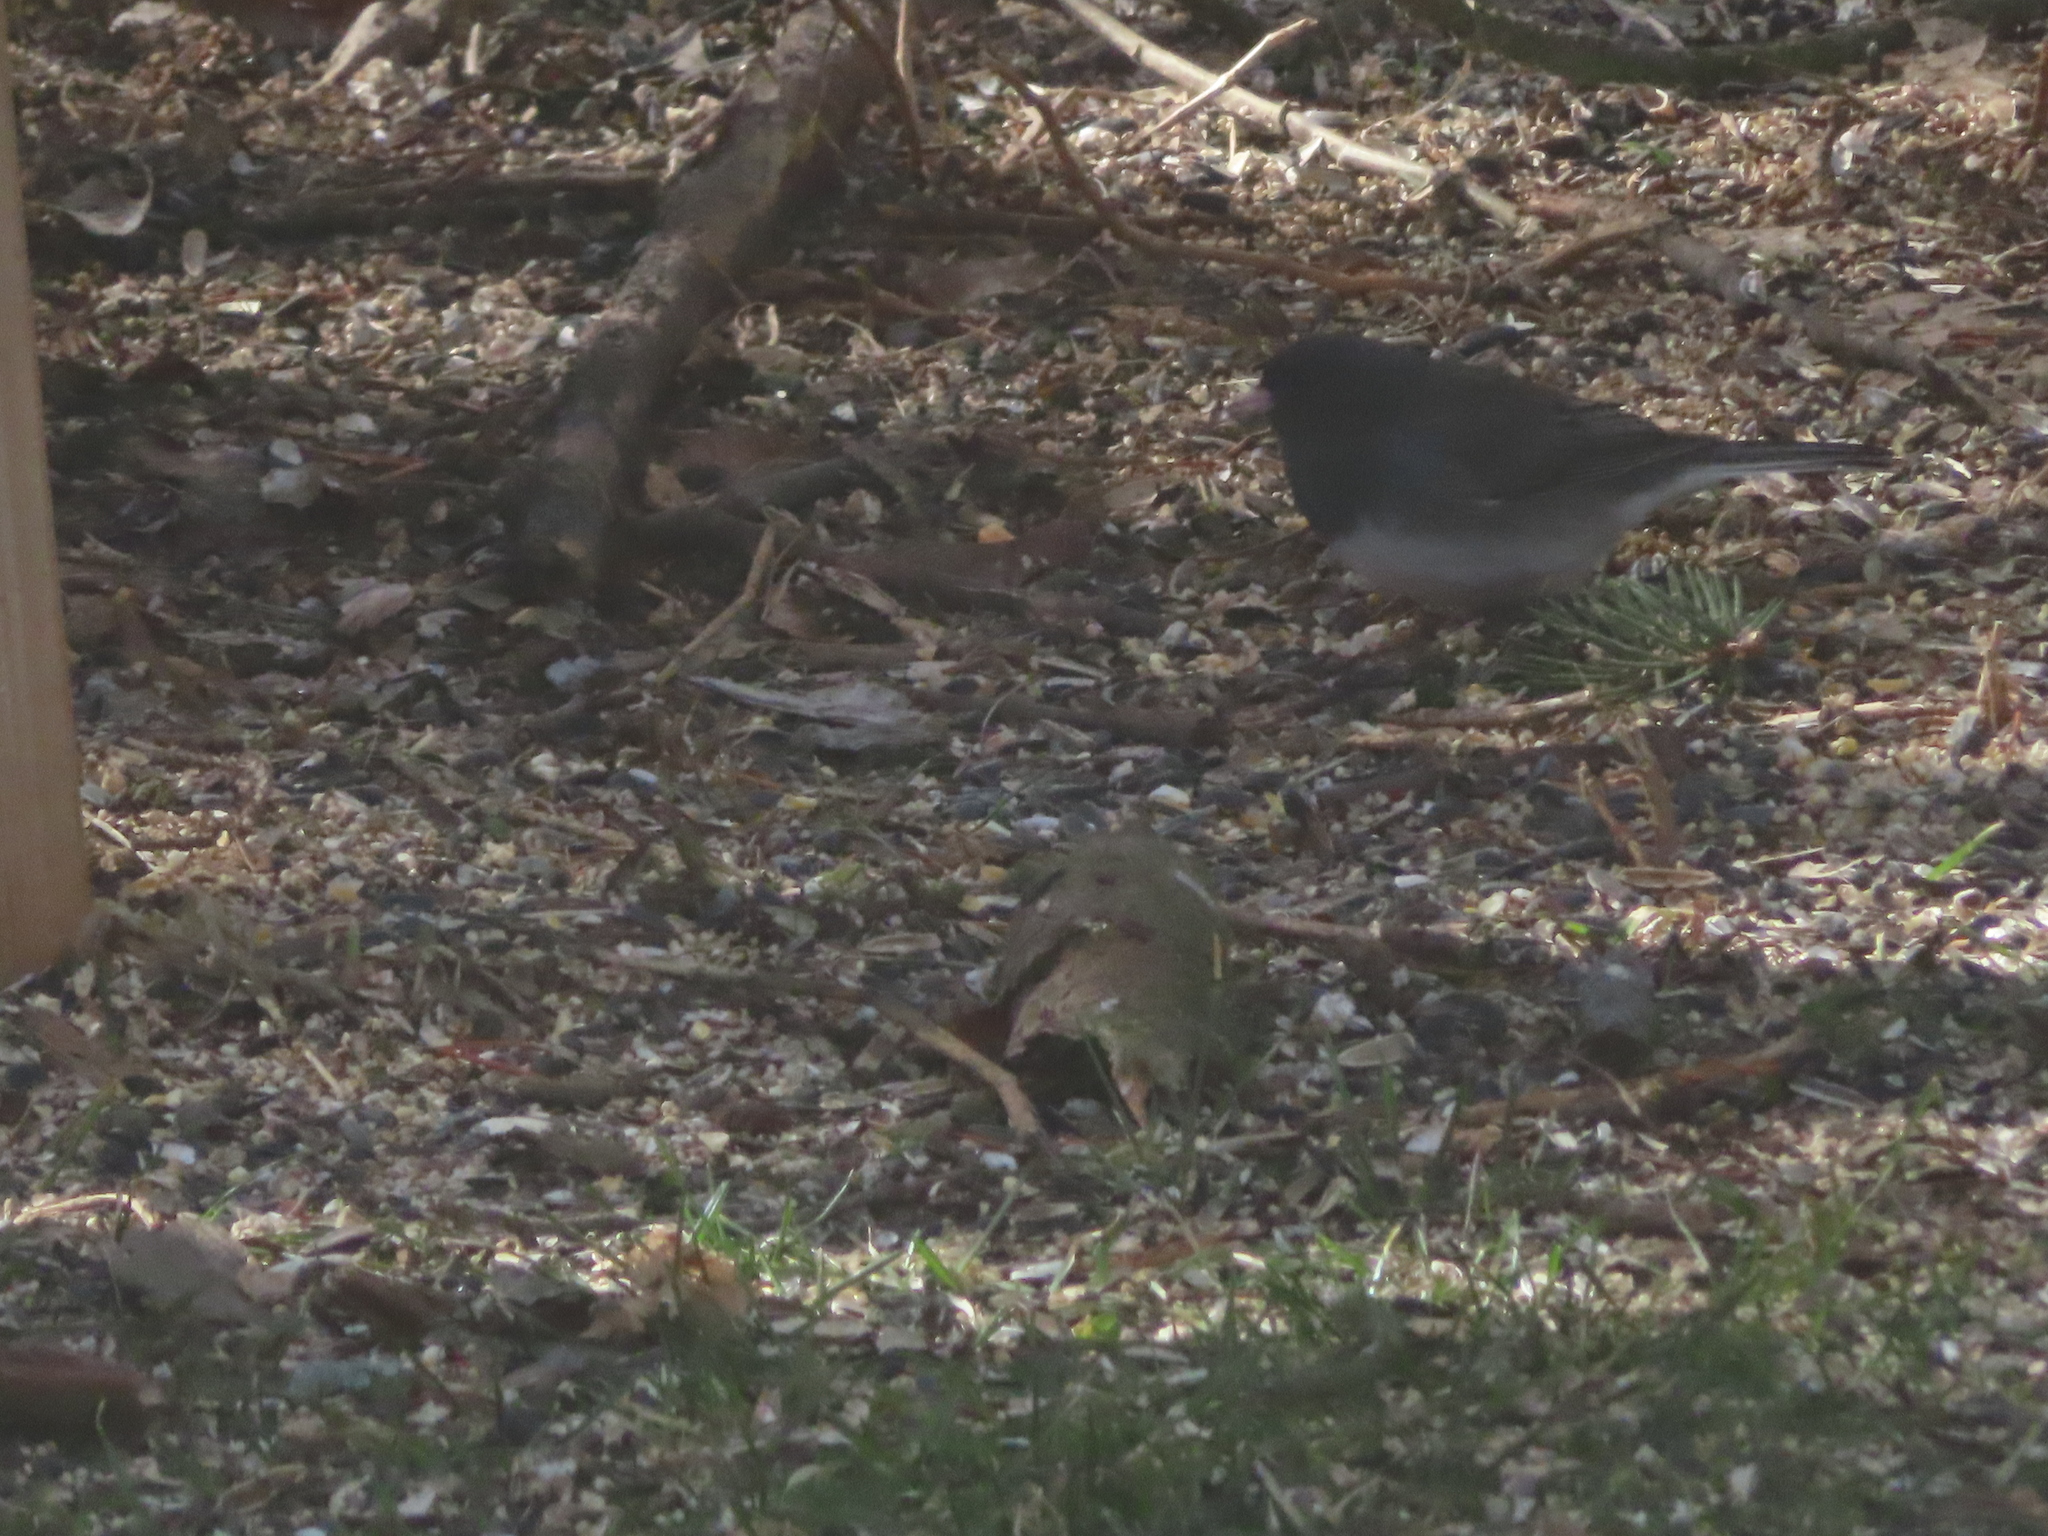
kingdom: Animalia
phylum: Chordata
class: Aves
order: Passeriformes
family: Passerellidae
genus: Junco
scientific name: Junco hyemalis
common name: Dark-eyed junco
